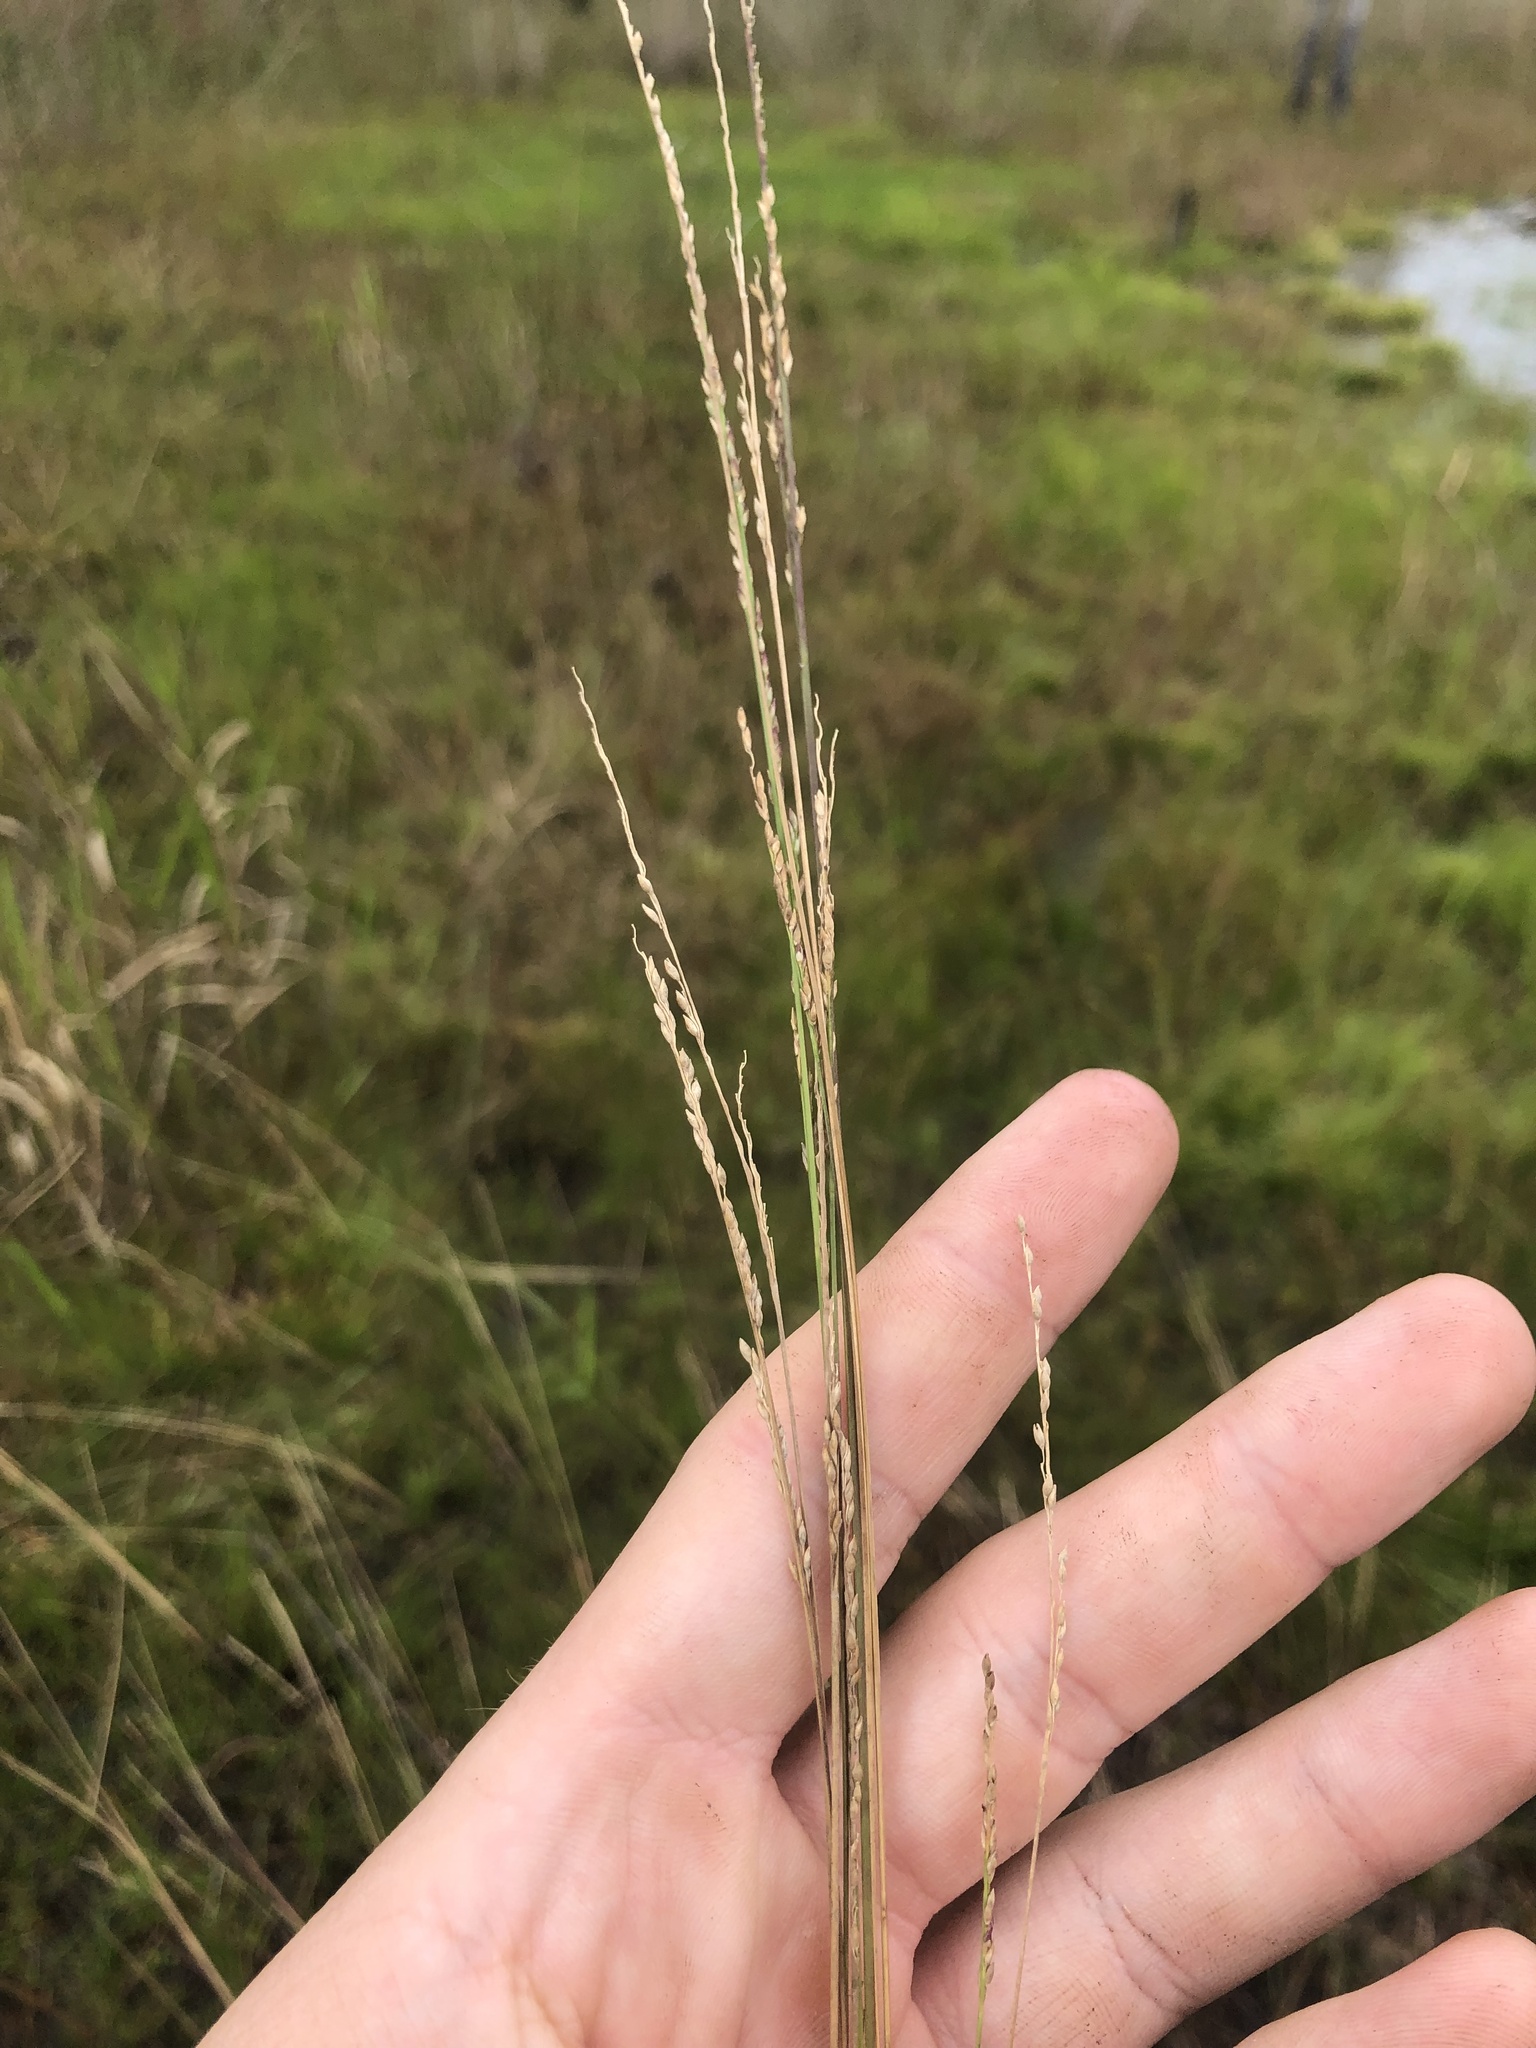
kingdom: Plantae
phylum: Tracheophyta
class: Liliopsida
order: Poales
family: Poaceae
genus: Coleataenia
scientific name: Coleataenia tenera
